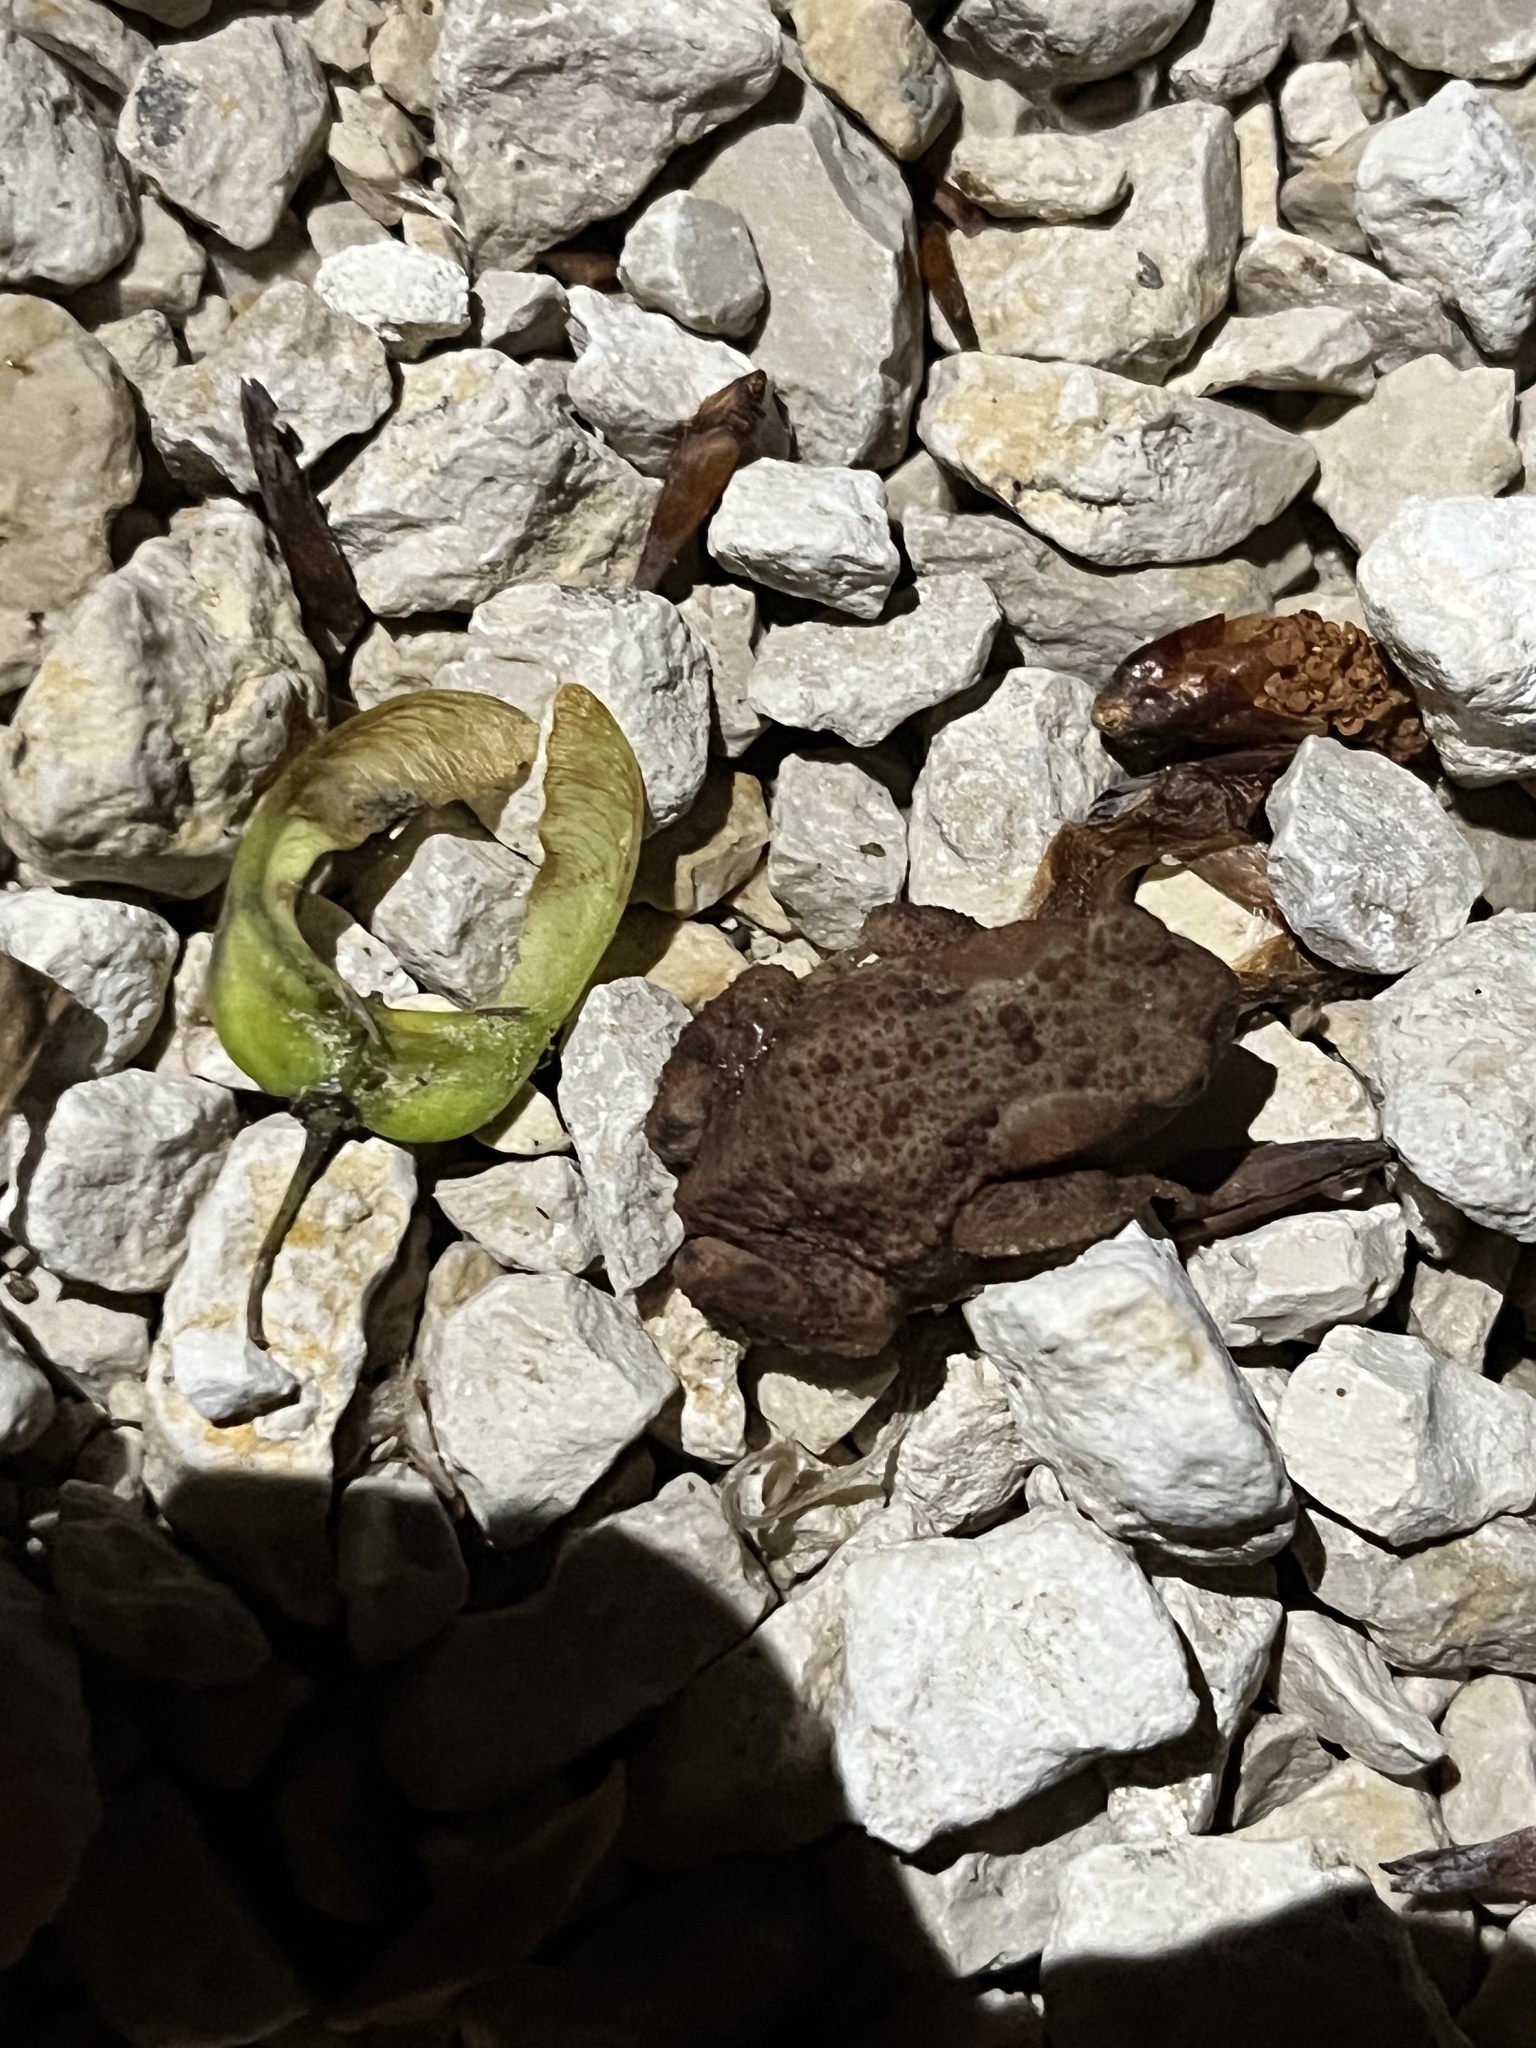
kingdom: Animalia
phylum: Chordata
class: Amphibia
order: Anura
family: Bufonidae
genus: Bufo
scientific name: Bufo bufo
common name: Common toad
